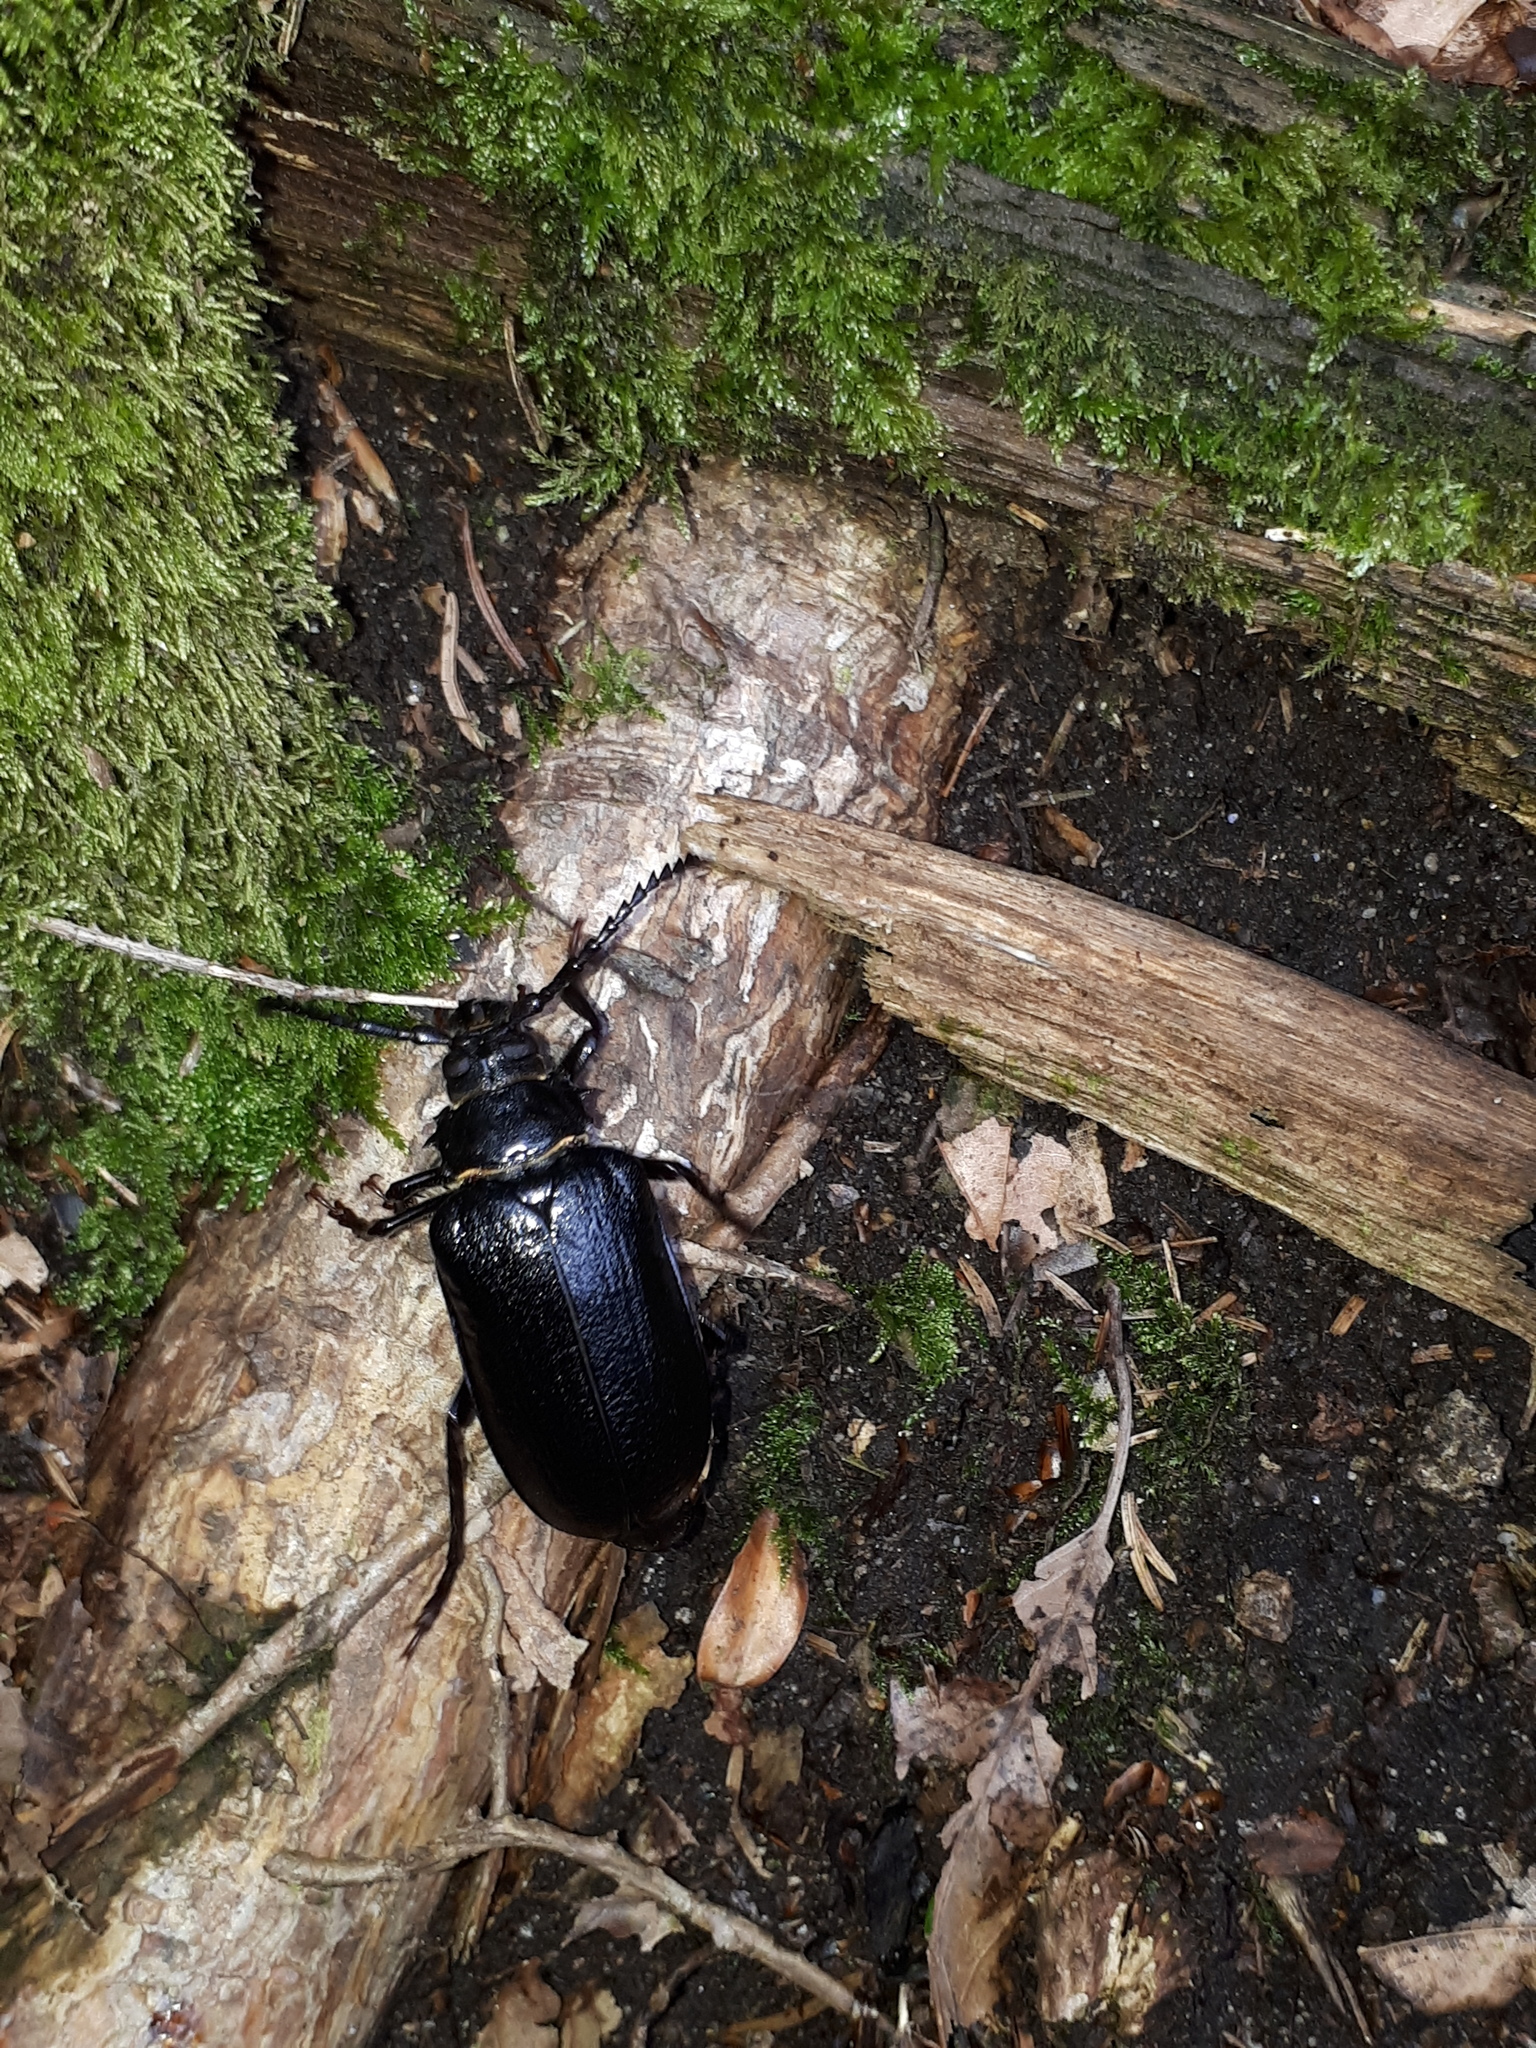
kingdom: Animalia
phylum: Arthropoda
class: Insecta
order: Coleoptera
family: Cerambycidae
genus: Prionus
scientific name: Prionus coriarius
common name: Tanner beetle
